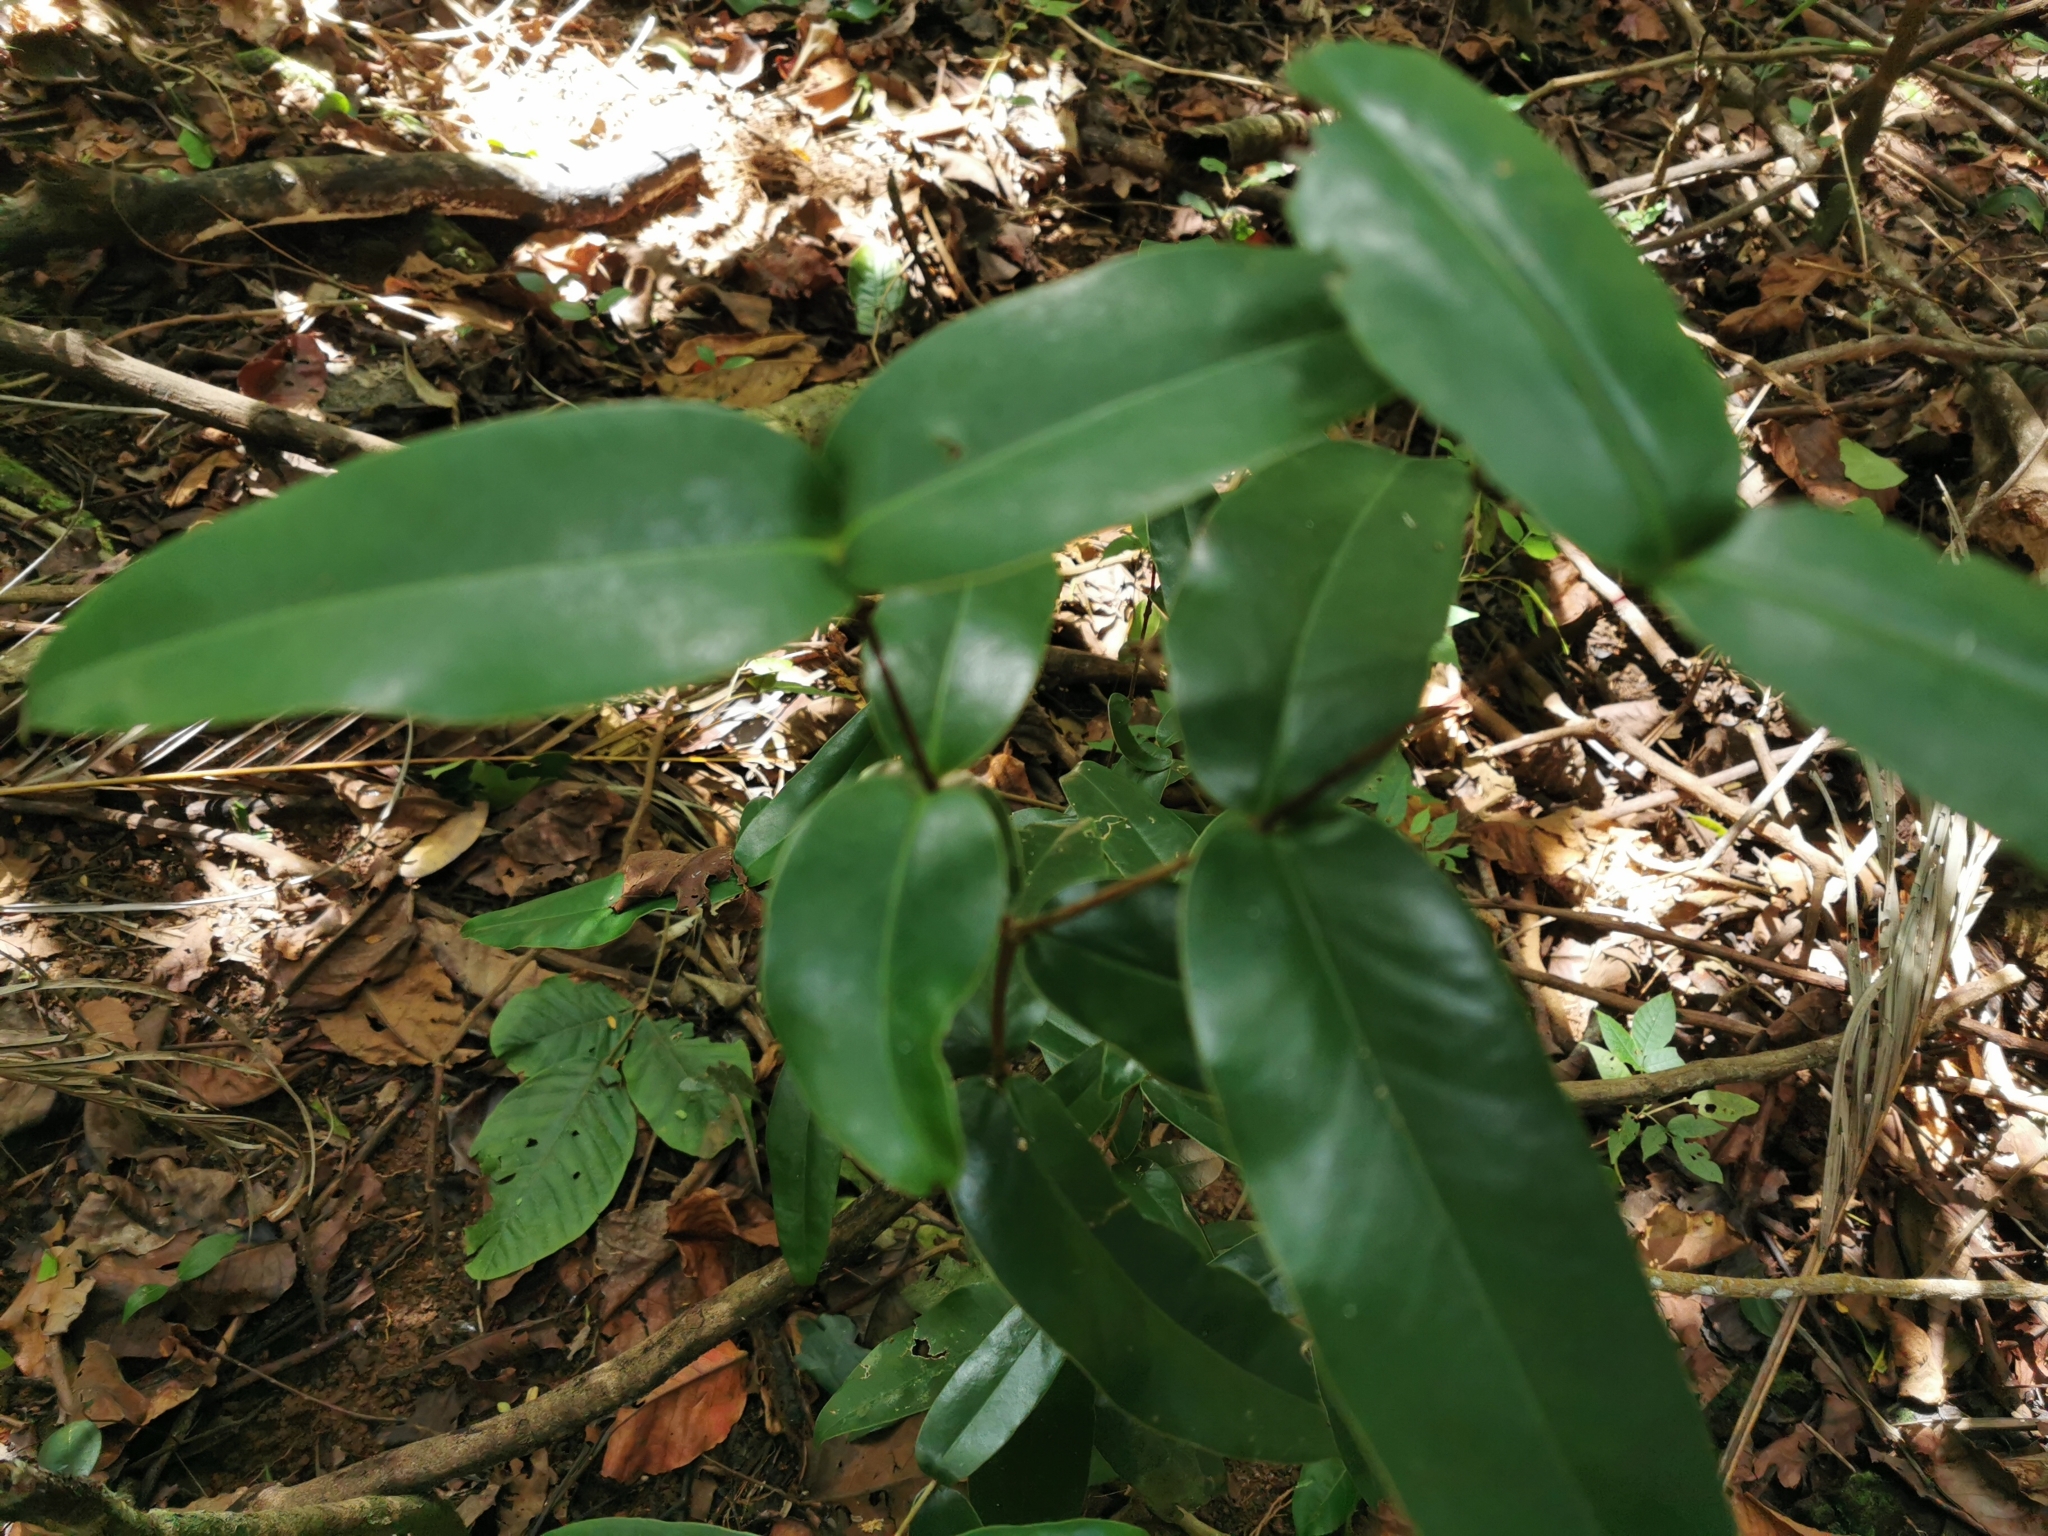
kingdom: Plantae
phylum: Tracheophyta
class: Magnoliopsida
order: Myrtales
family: Melastomataceae
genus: Memecylon
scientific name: Memecylon caeruleum
